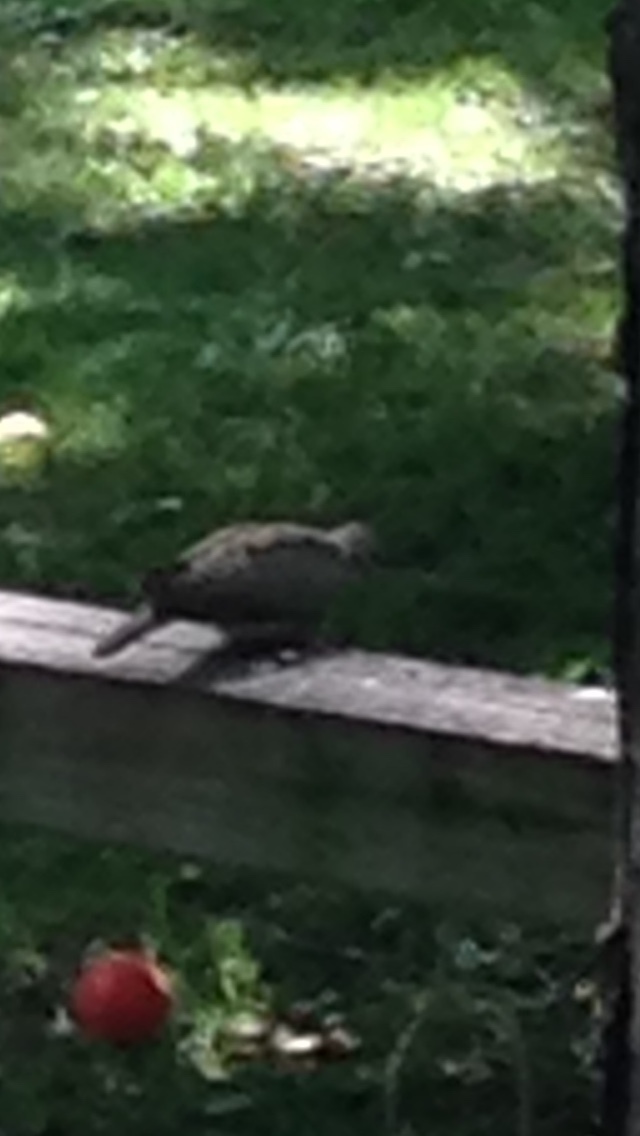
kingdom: Animalia
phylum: Chordata
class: Aves
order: Columbiformes
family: Columbidae
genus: Zenaida
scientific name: Zenaida macroura
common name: Mourning dove
